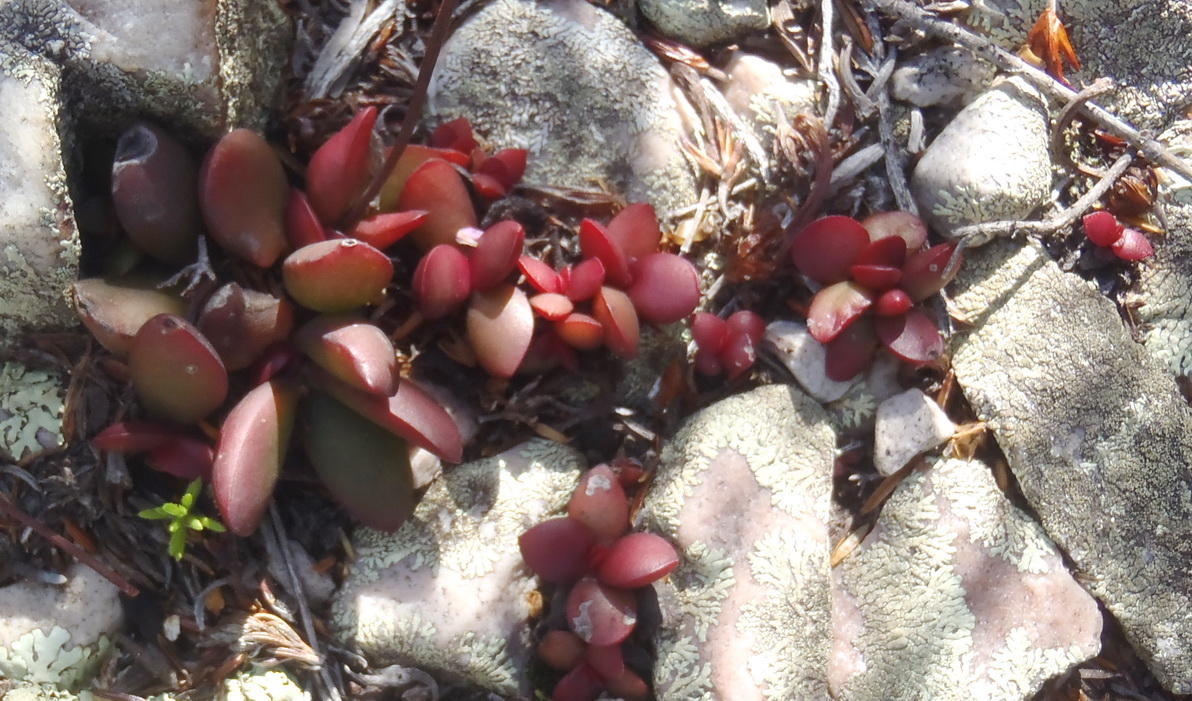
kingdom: Plantae
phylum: Tracheophyta
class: Magnoliopsida
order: Saxifragales
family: Crassulaceae
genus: Crassula
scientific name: Crassula atropurpurea
